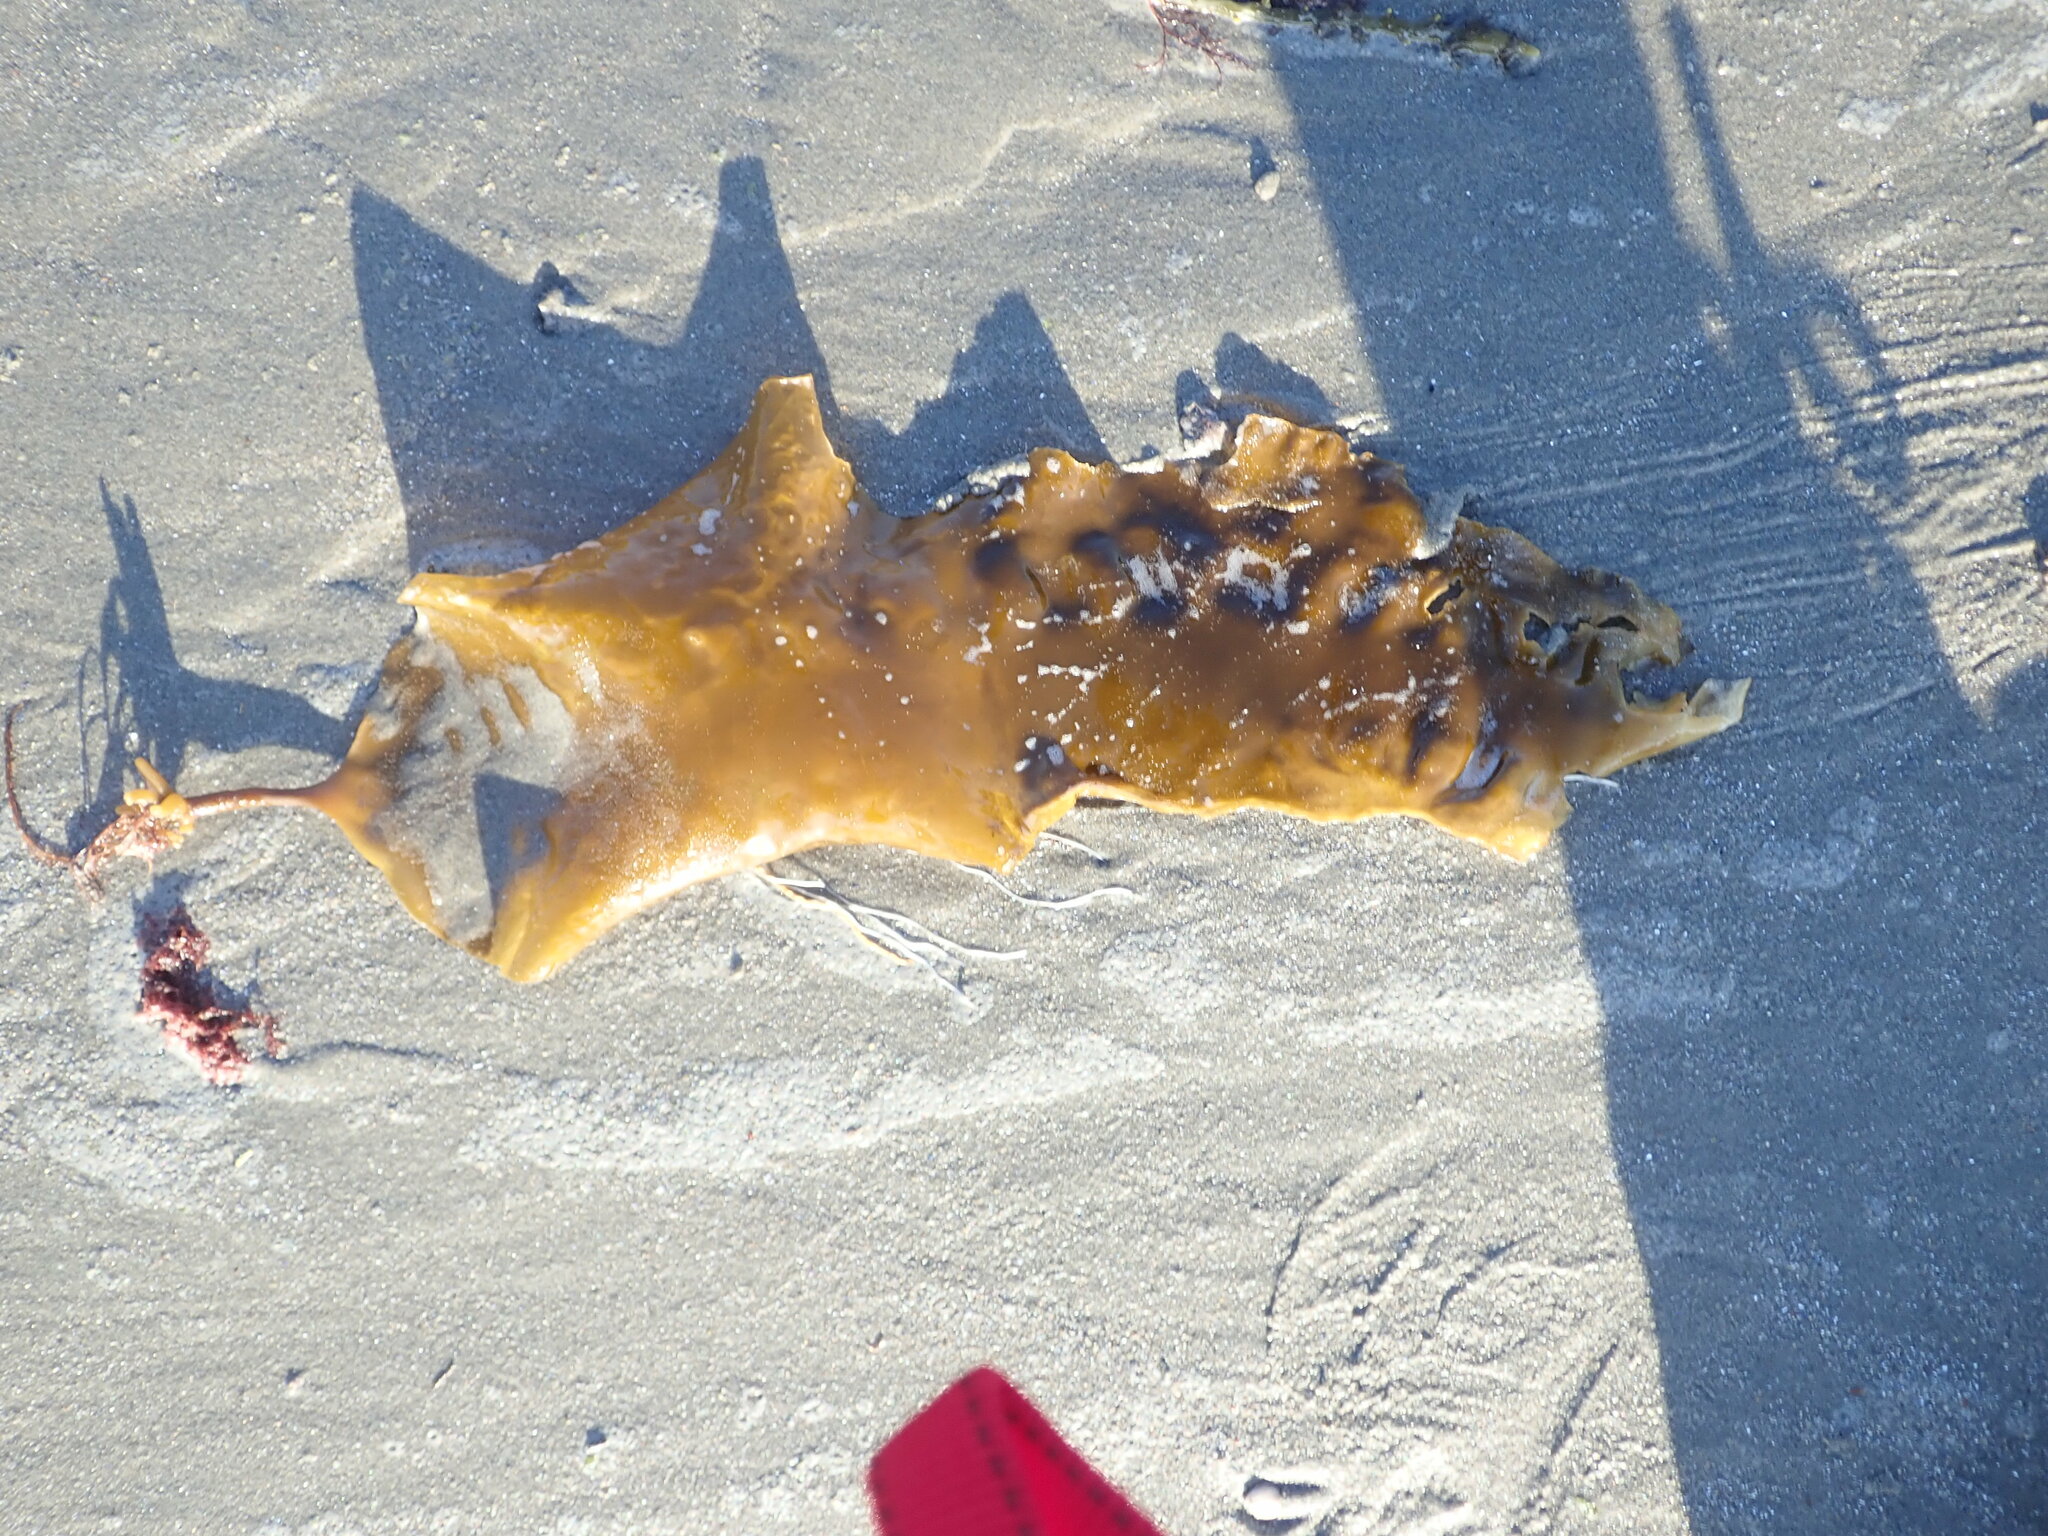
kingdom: Chromista
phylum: Ochrophyta
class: Phaeophyceae
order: Laminariales
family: Laminariaceae
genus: Saccharina
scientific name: Saccharina latissima
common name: Poor man's weather glass
